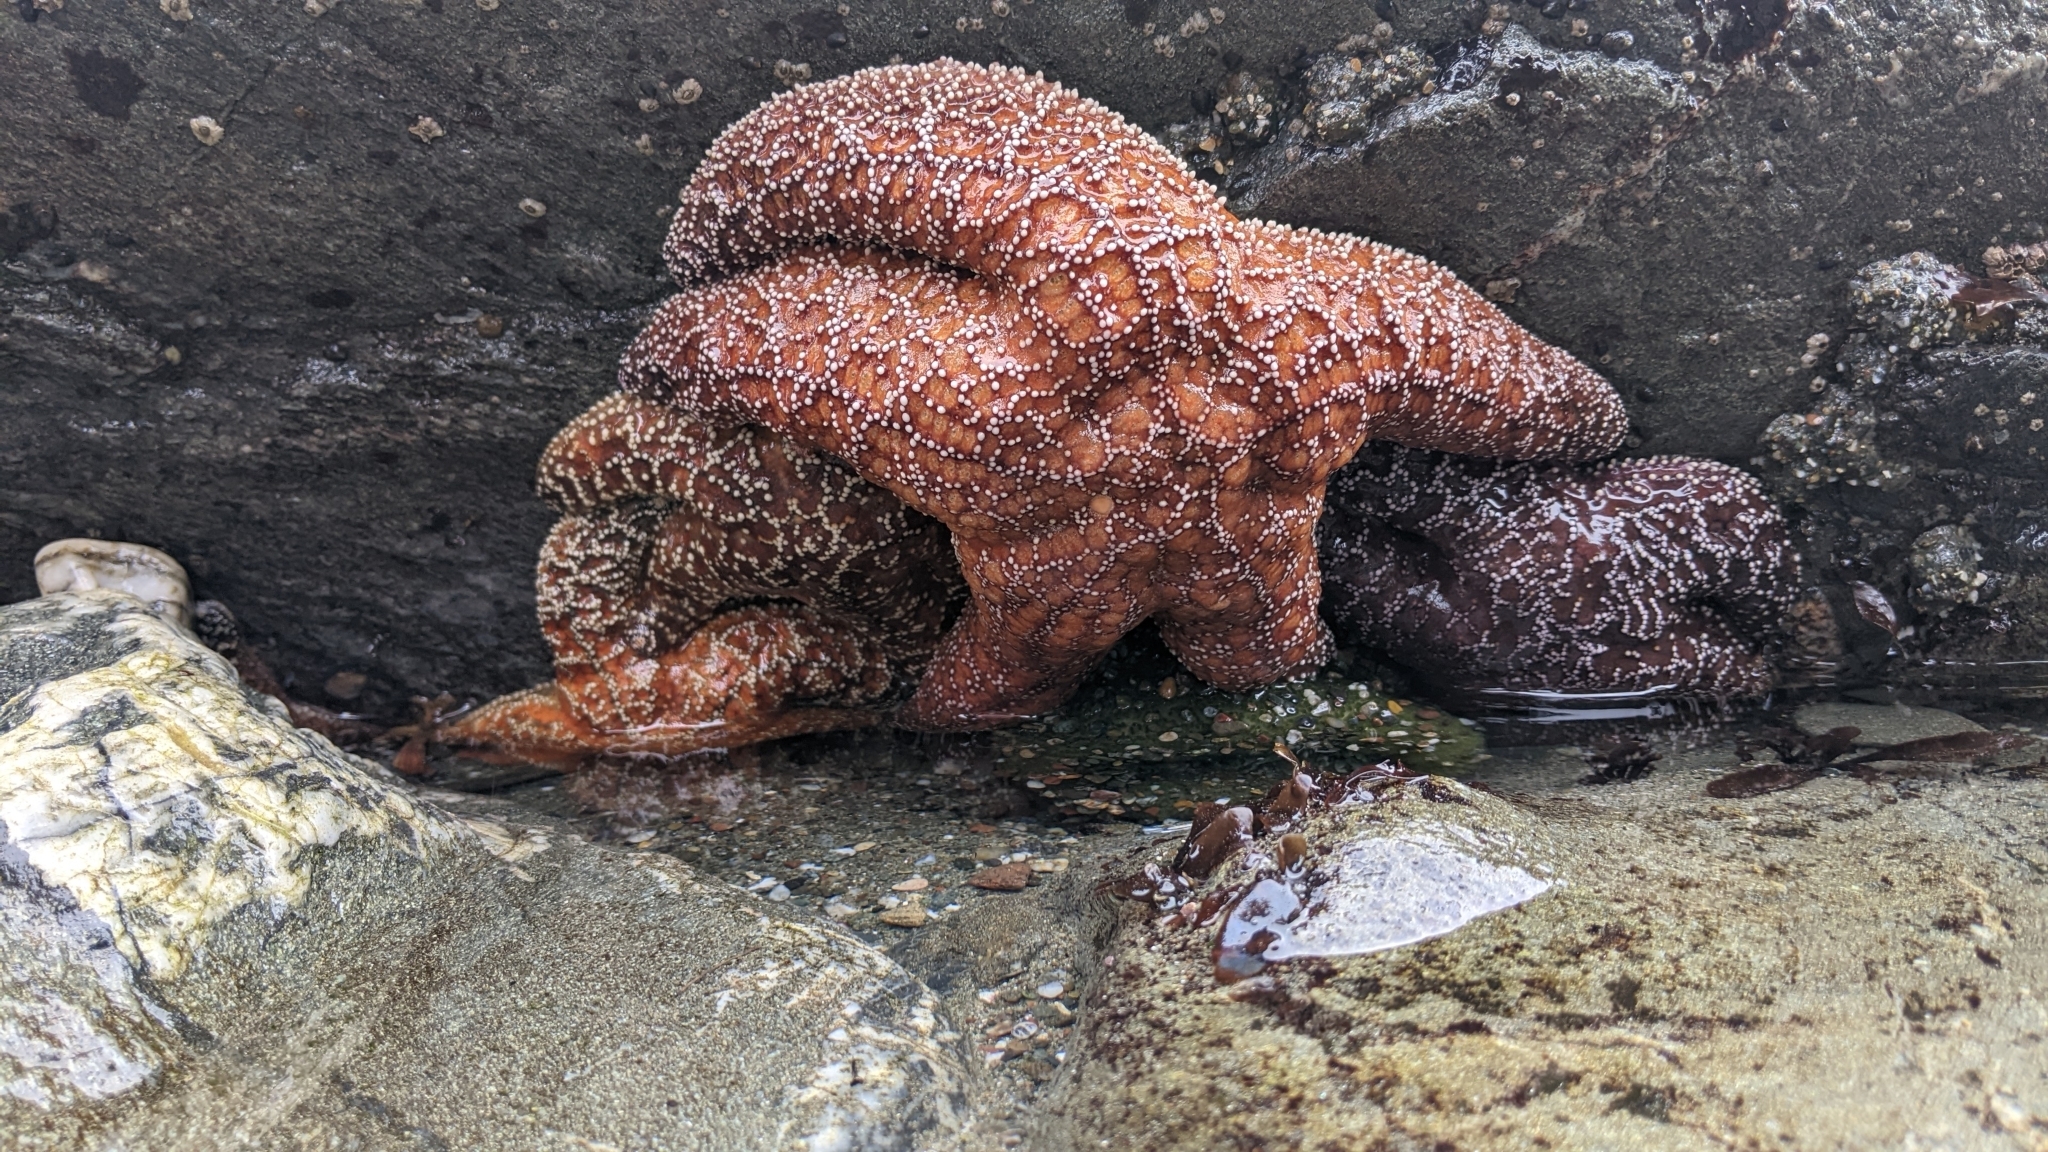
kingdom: Animalia
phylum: Echinodermata
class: Asteroidea
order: Forcipulatida
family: Asteriidae
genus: Pisaster
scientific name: Pisaster ochraceus
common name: Ochre stars
